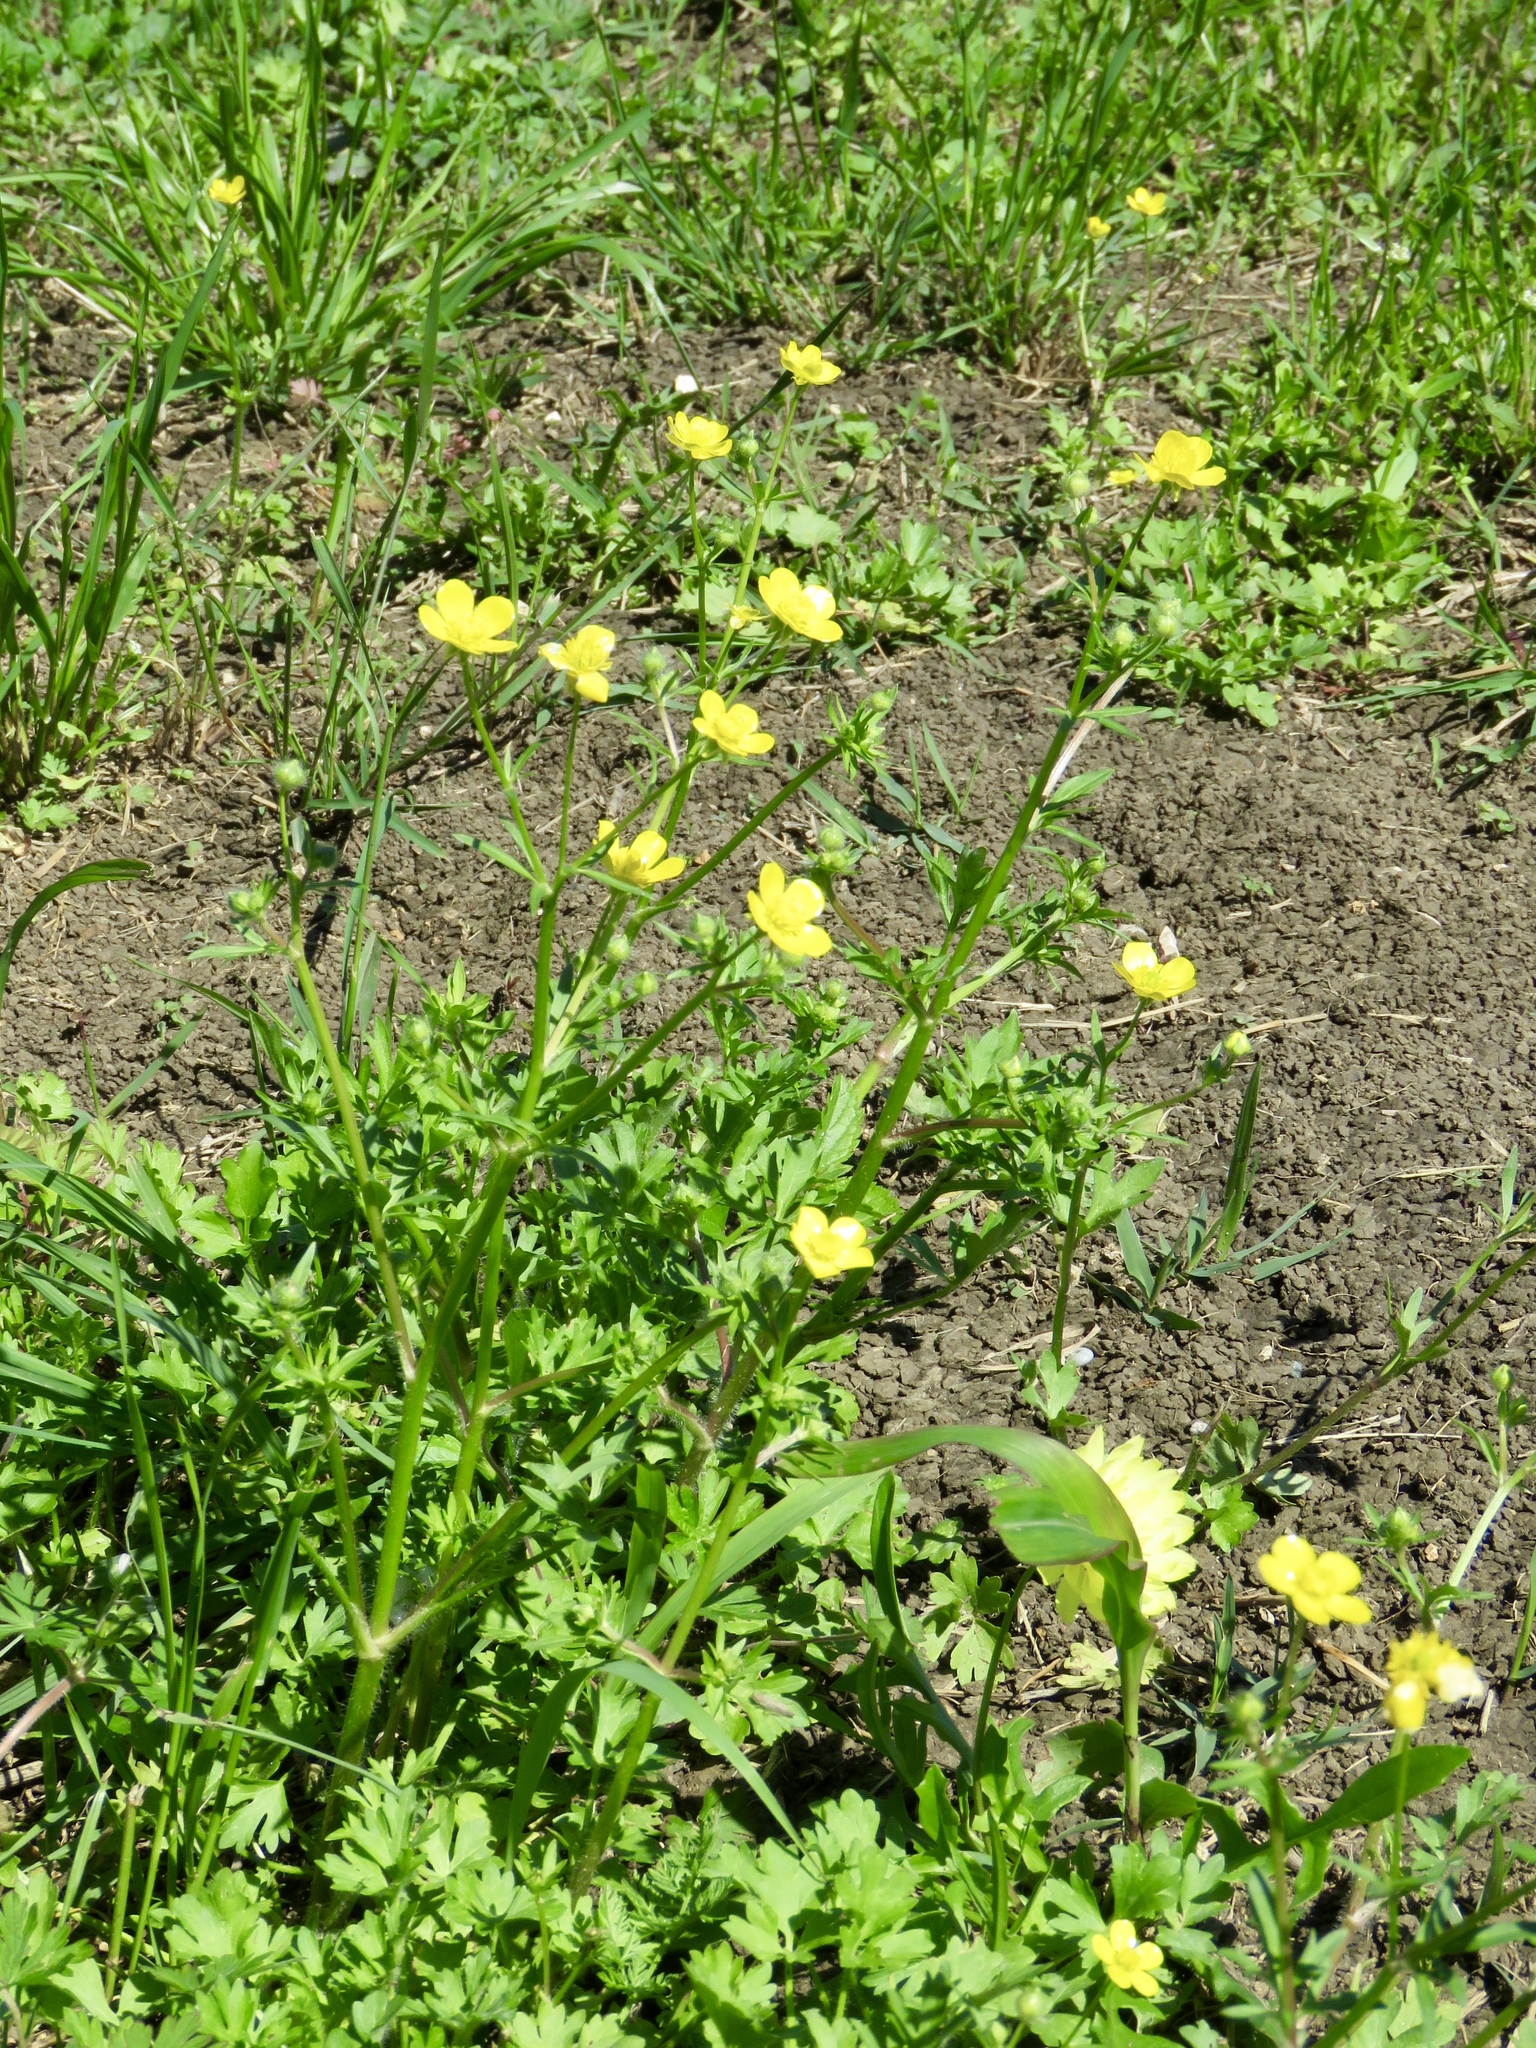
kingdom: Plantae
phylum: Tracheophyta
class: Magnoliopsida
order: Ranunculales
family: Ranunculaceae
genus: Ranunculus
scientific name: Ranunculus sardous
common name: Hairy buttercup
